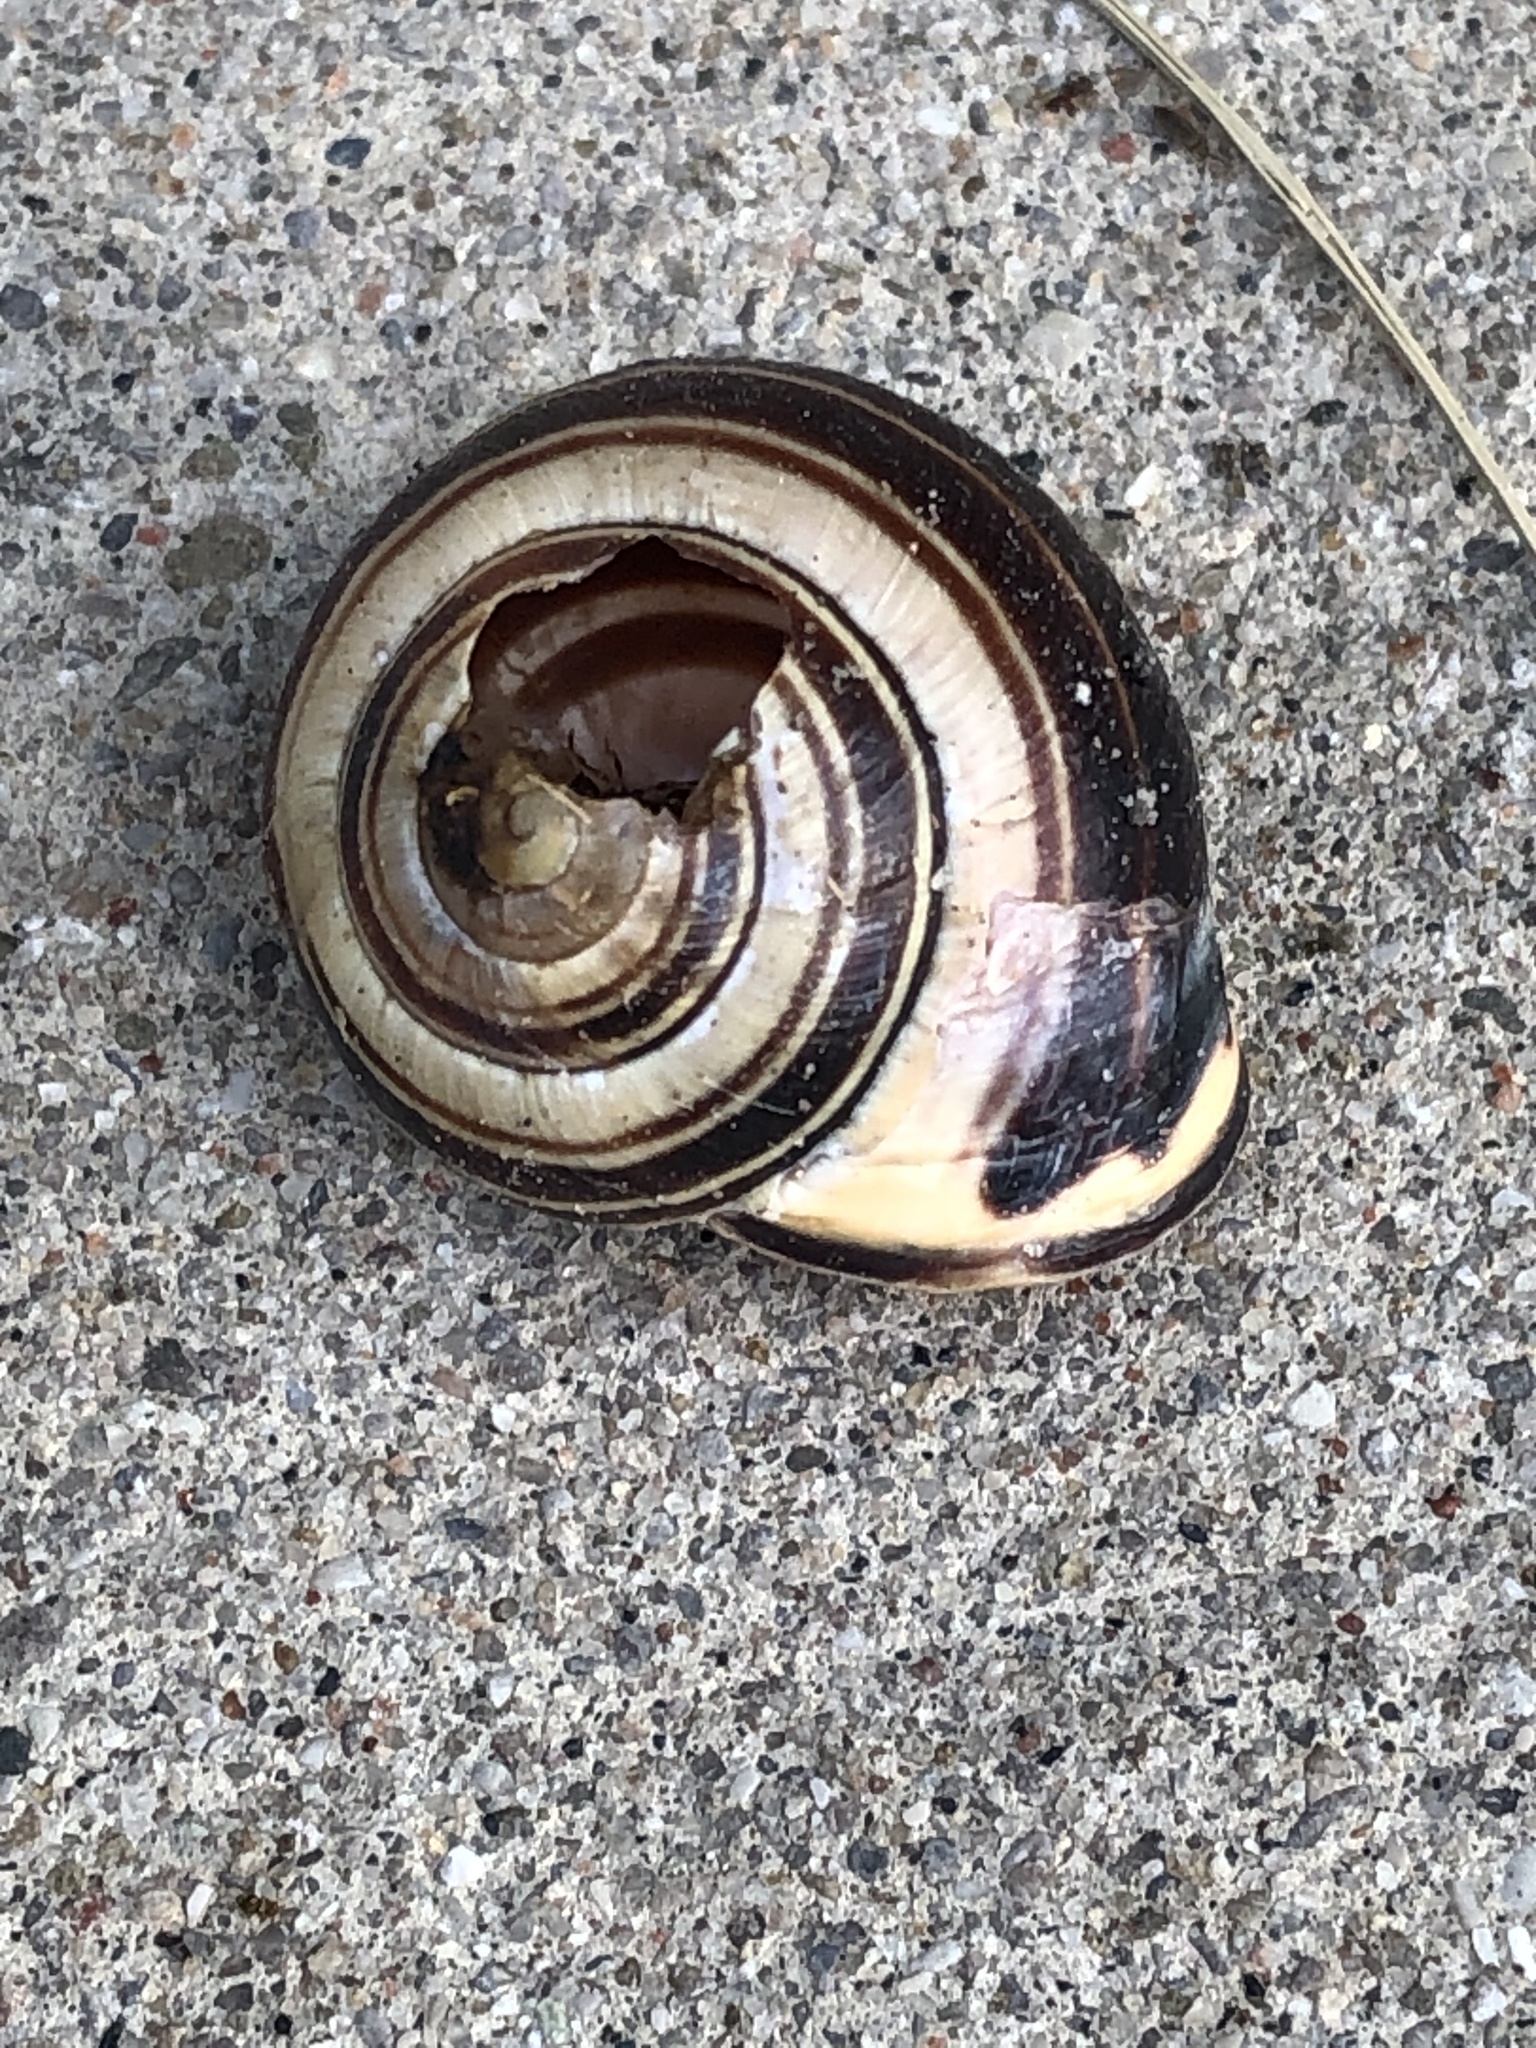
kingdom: Animalia
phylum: Mollusca
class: Gastropoda
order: Stylommatophora
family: Helicidae
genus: Cepaea
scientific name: Cepaea nemoralis
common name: Grovesnail
